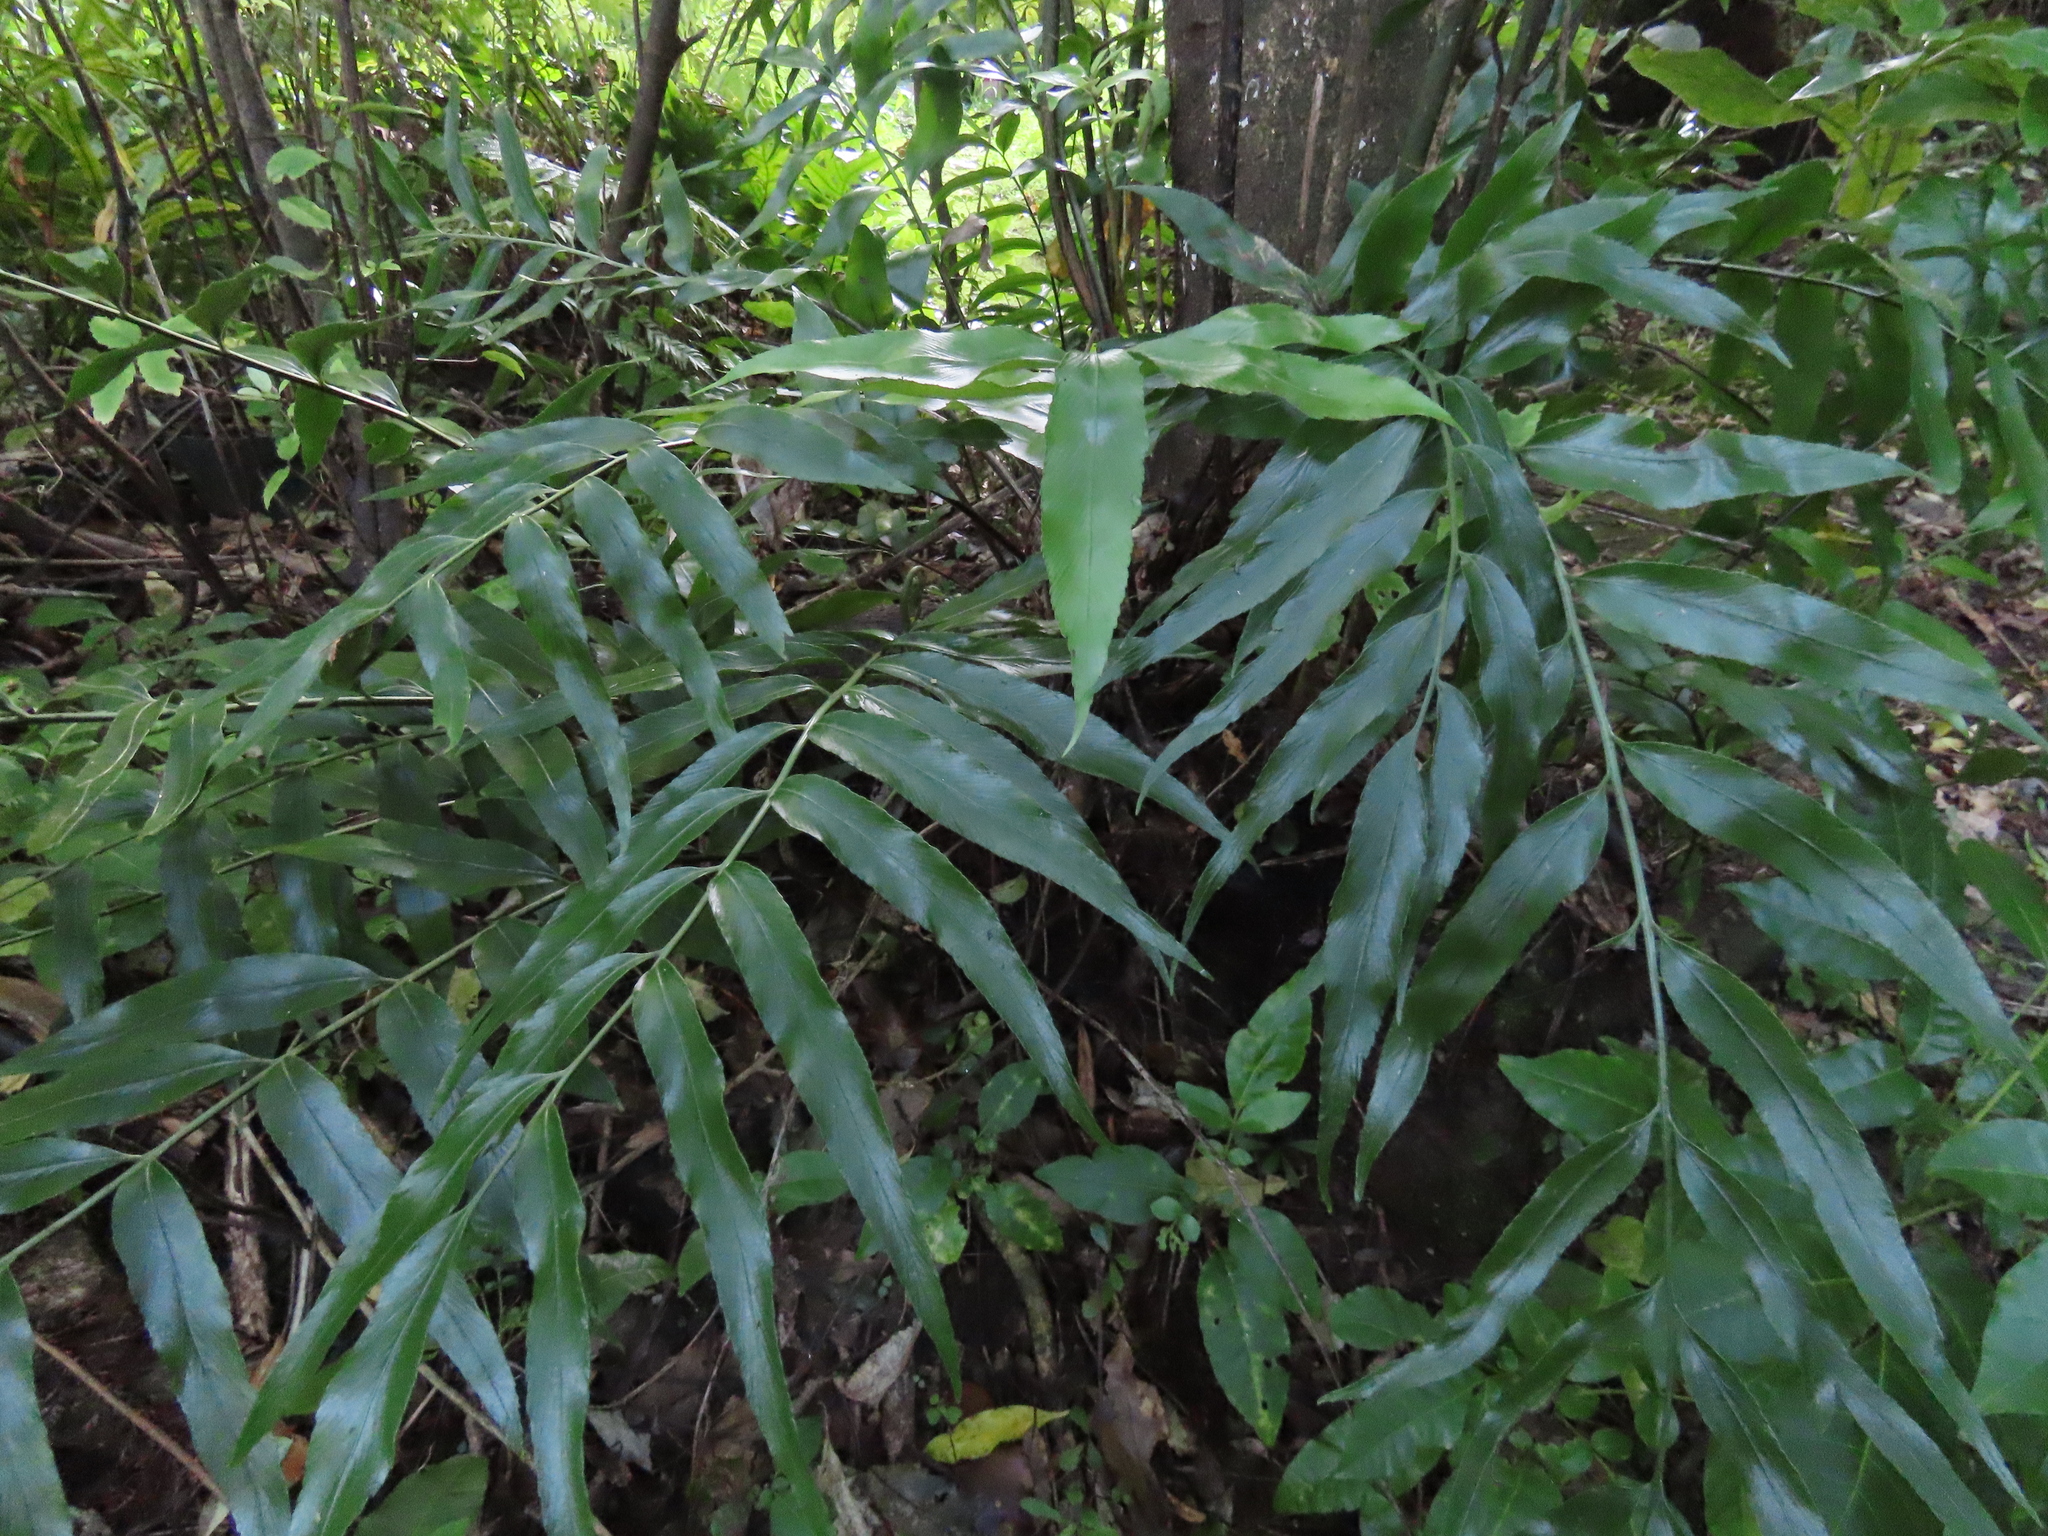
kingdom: Plantae
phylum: Tracheophyta
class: Polypodiopsida
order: Polypodiales
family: Aspleniaceae
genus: Asplenium
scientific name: Asplenium oblongifolium
